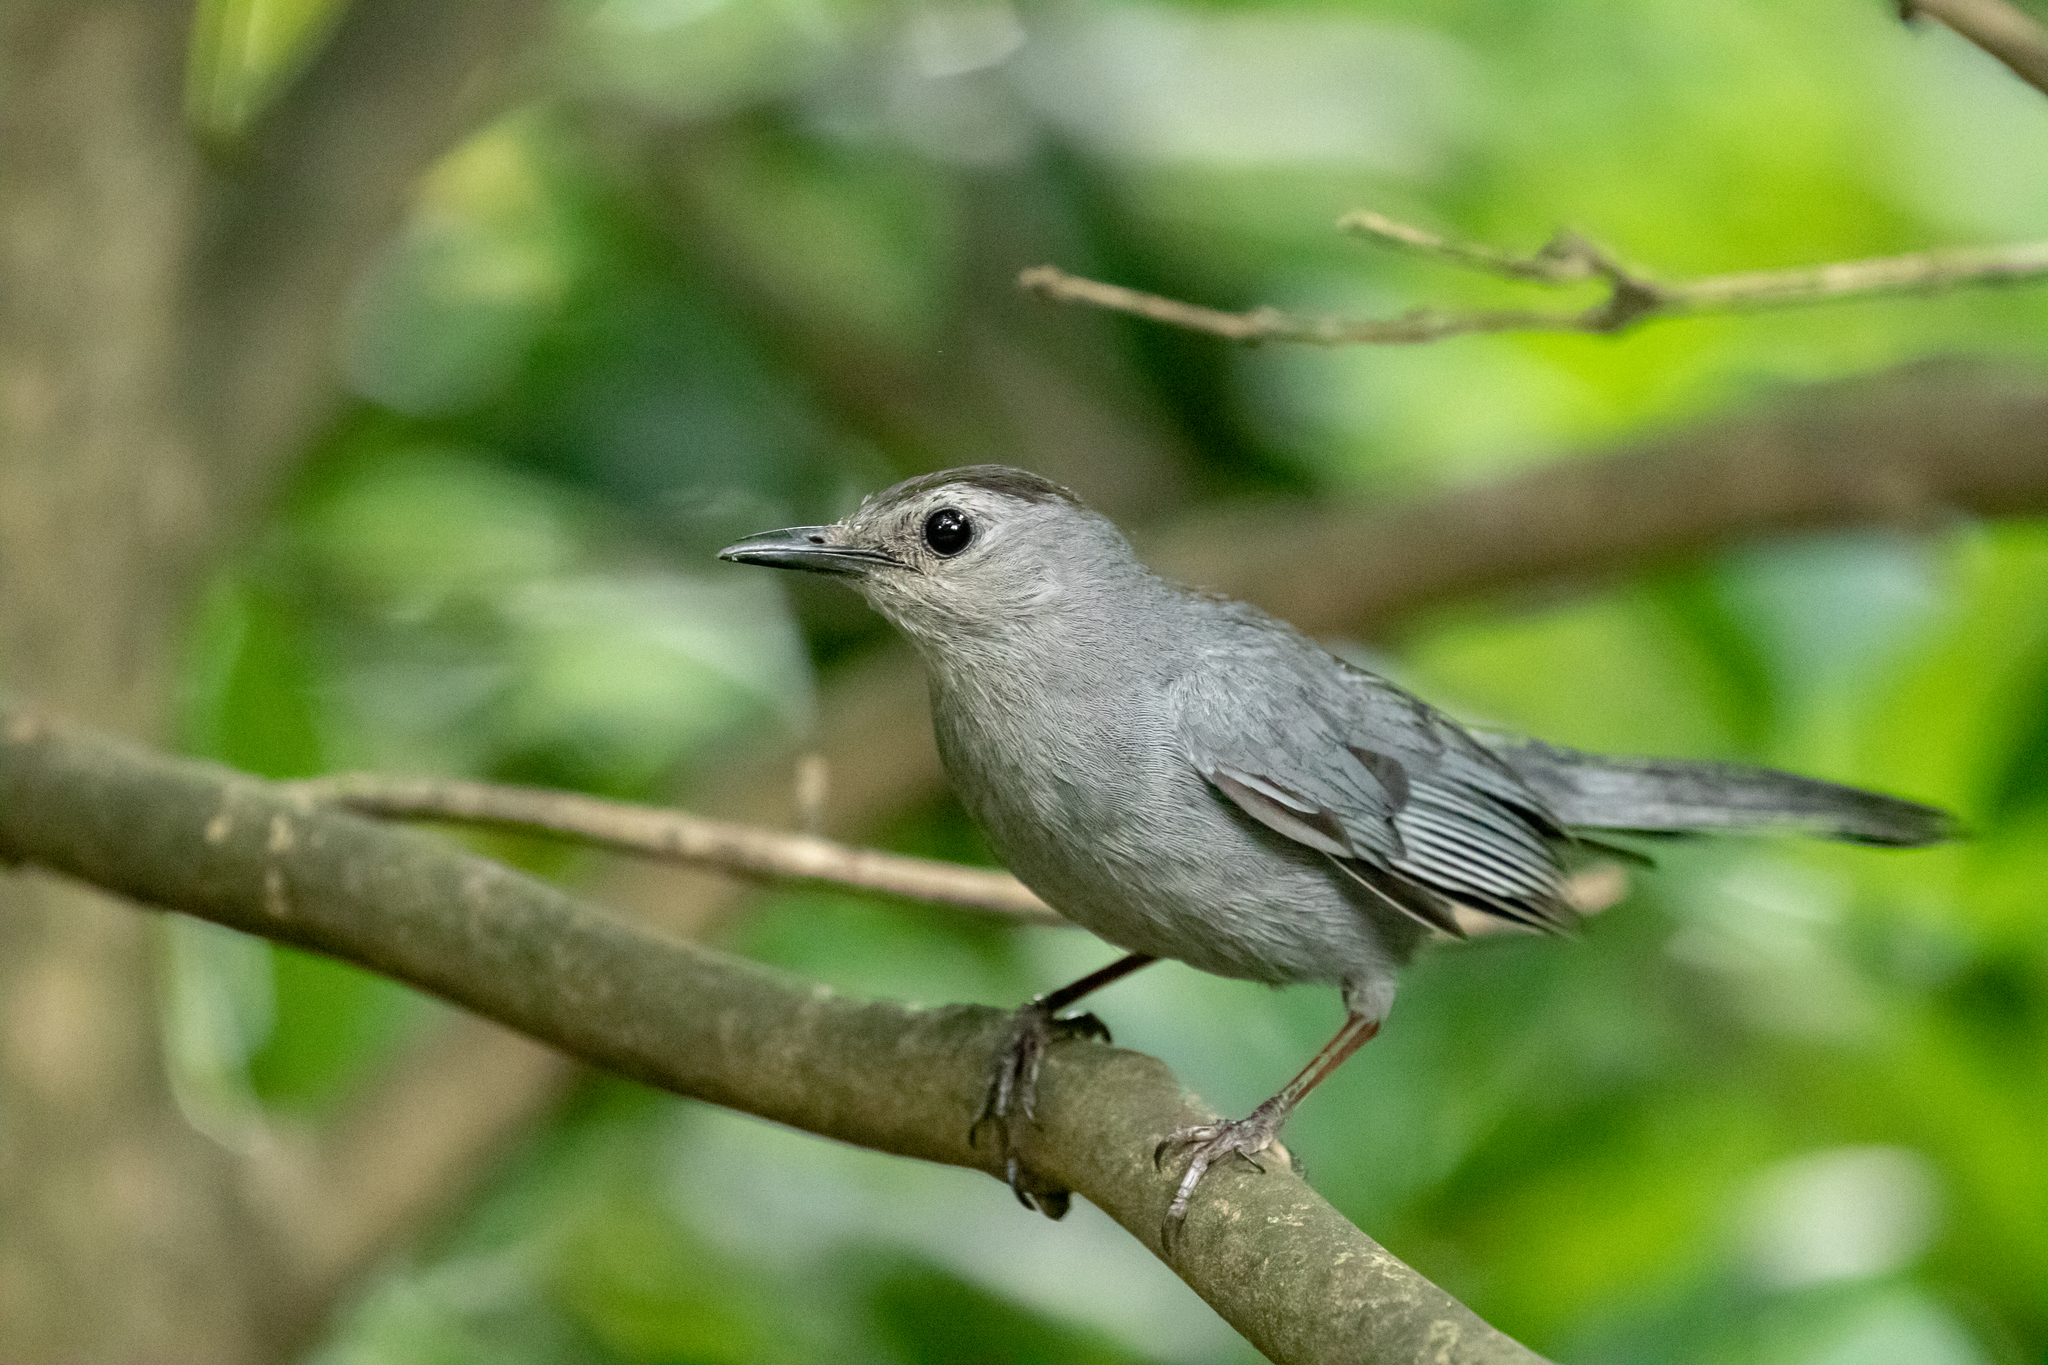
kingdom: Animalia
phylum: Chordata
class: Aves
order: Passeriformes
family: Mimidae
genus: Dumetella
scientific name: Dumetella carolinensis
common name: Gray catbird
